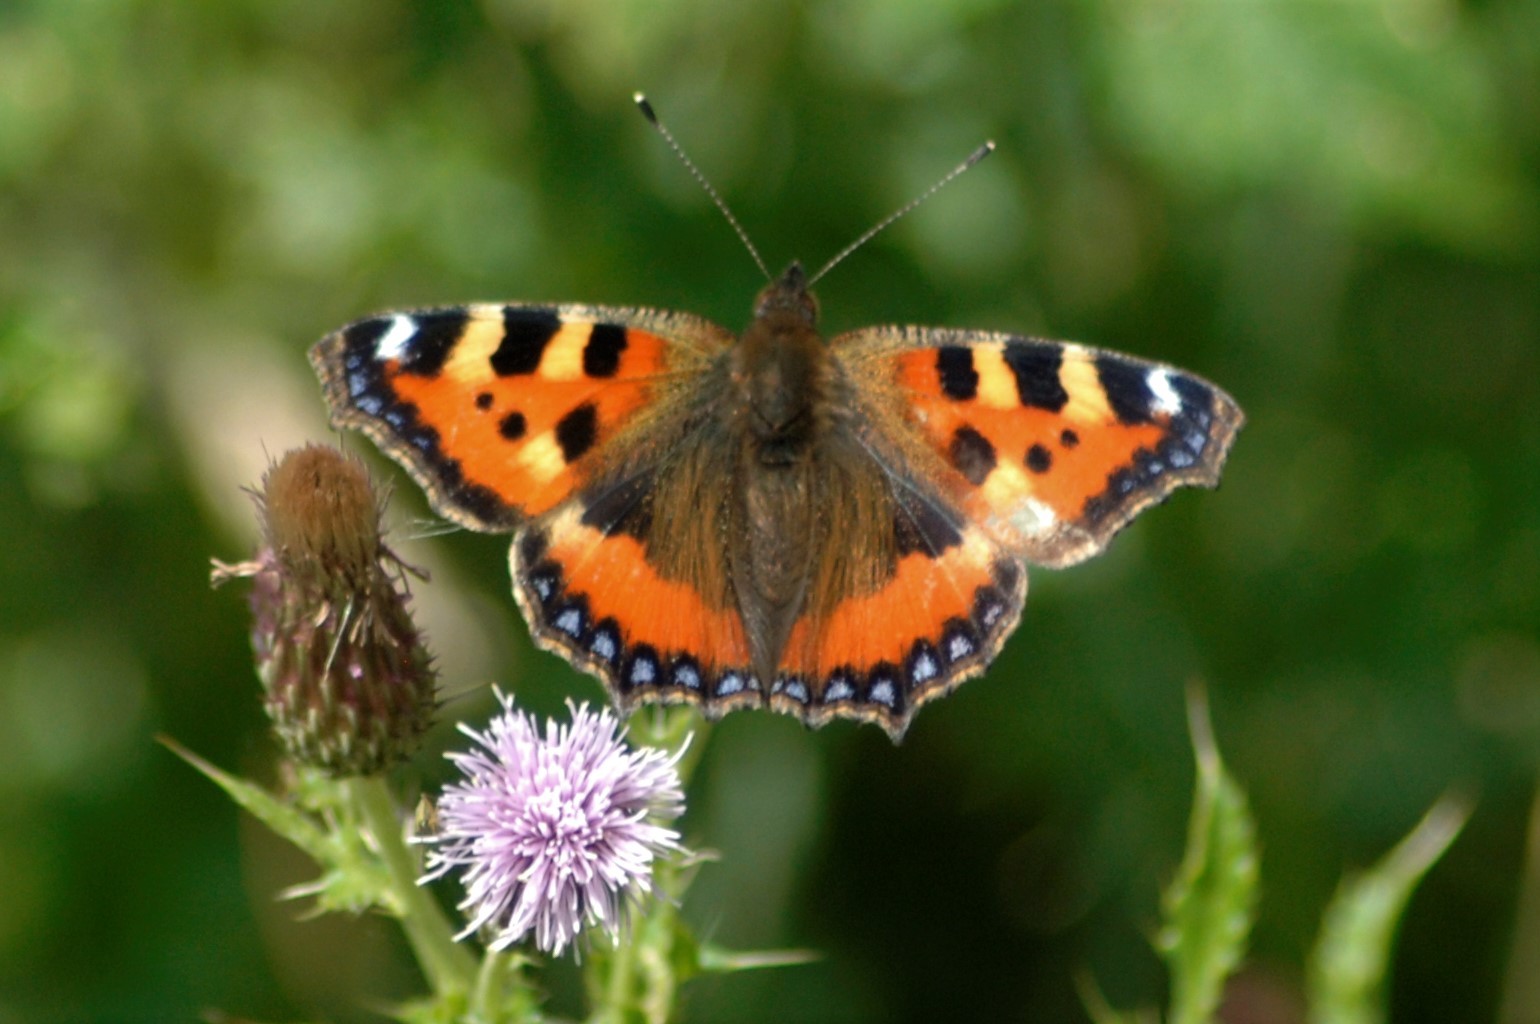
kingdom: Animalia
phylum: Arthropoda
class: Insecta
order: Lepidoptera
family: Nymphalidae
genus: Aglais
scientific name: Aglais urticae
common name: Small tortoiseshell
